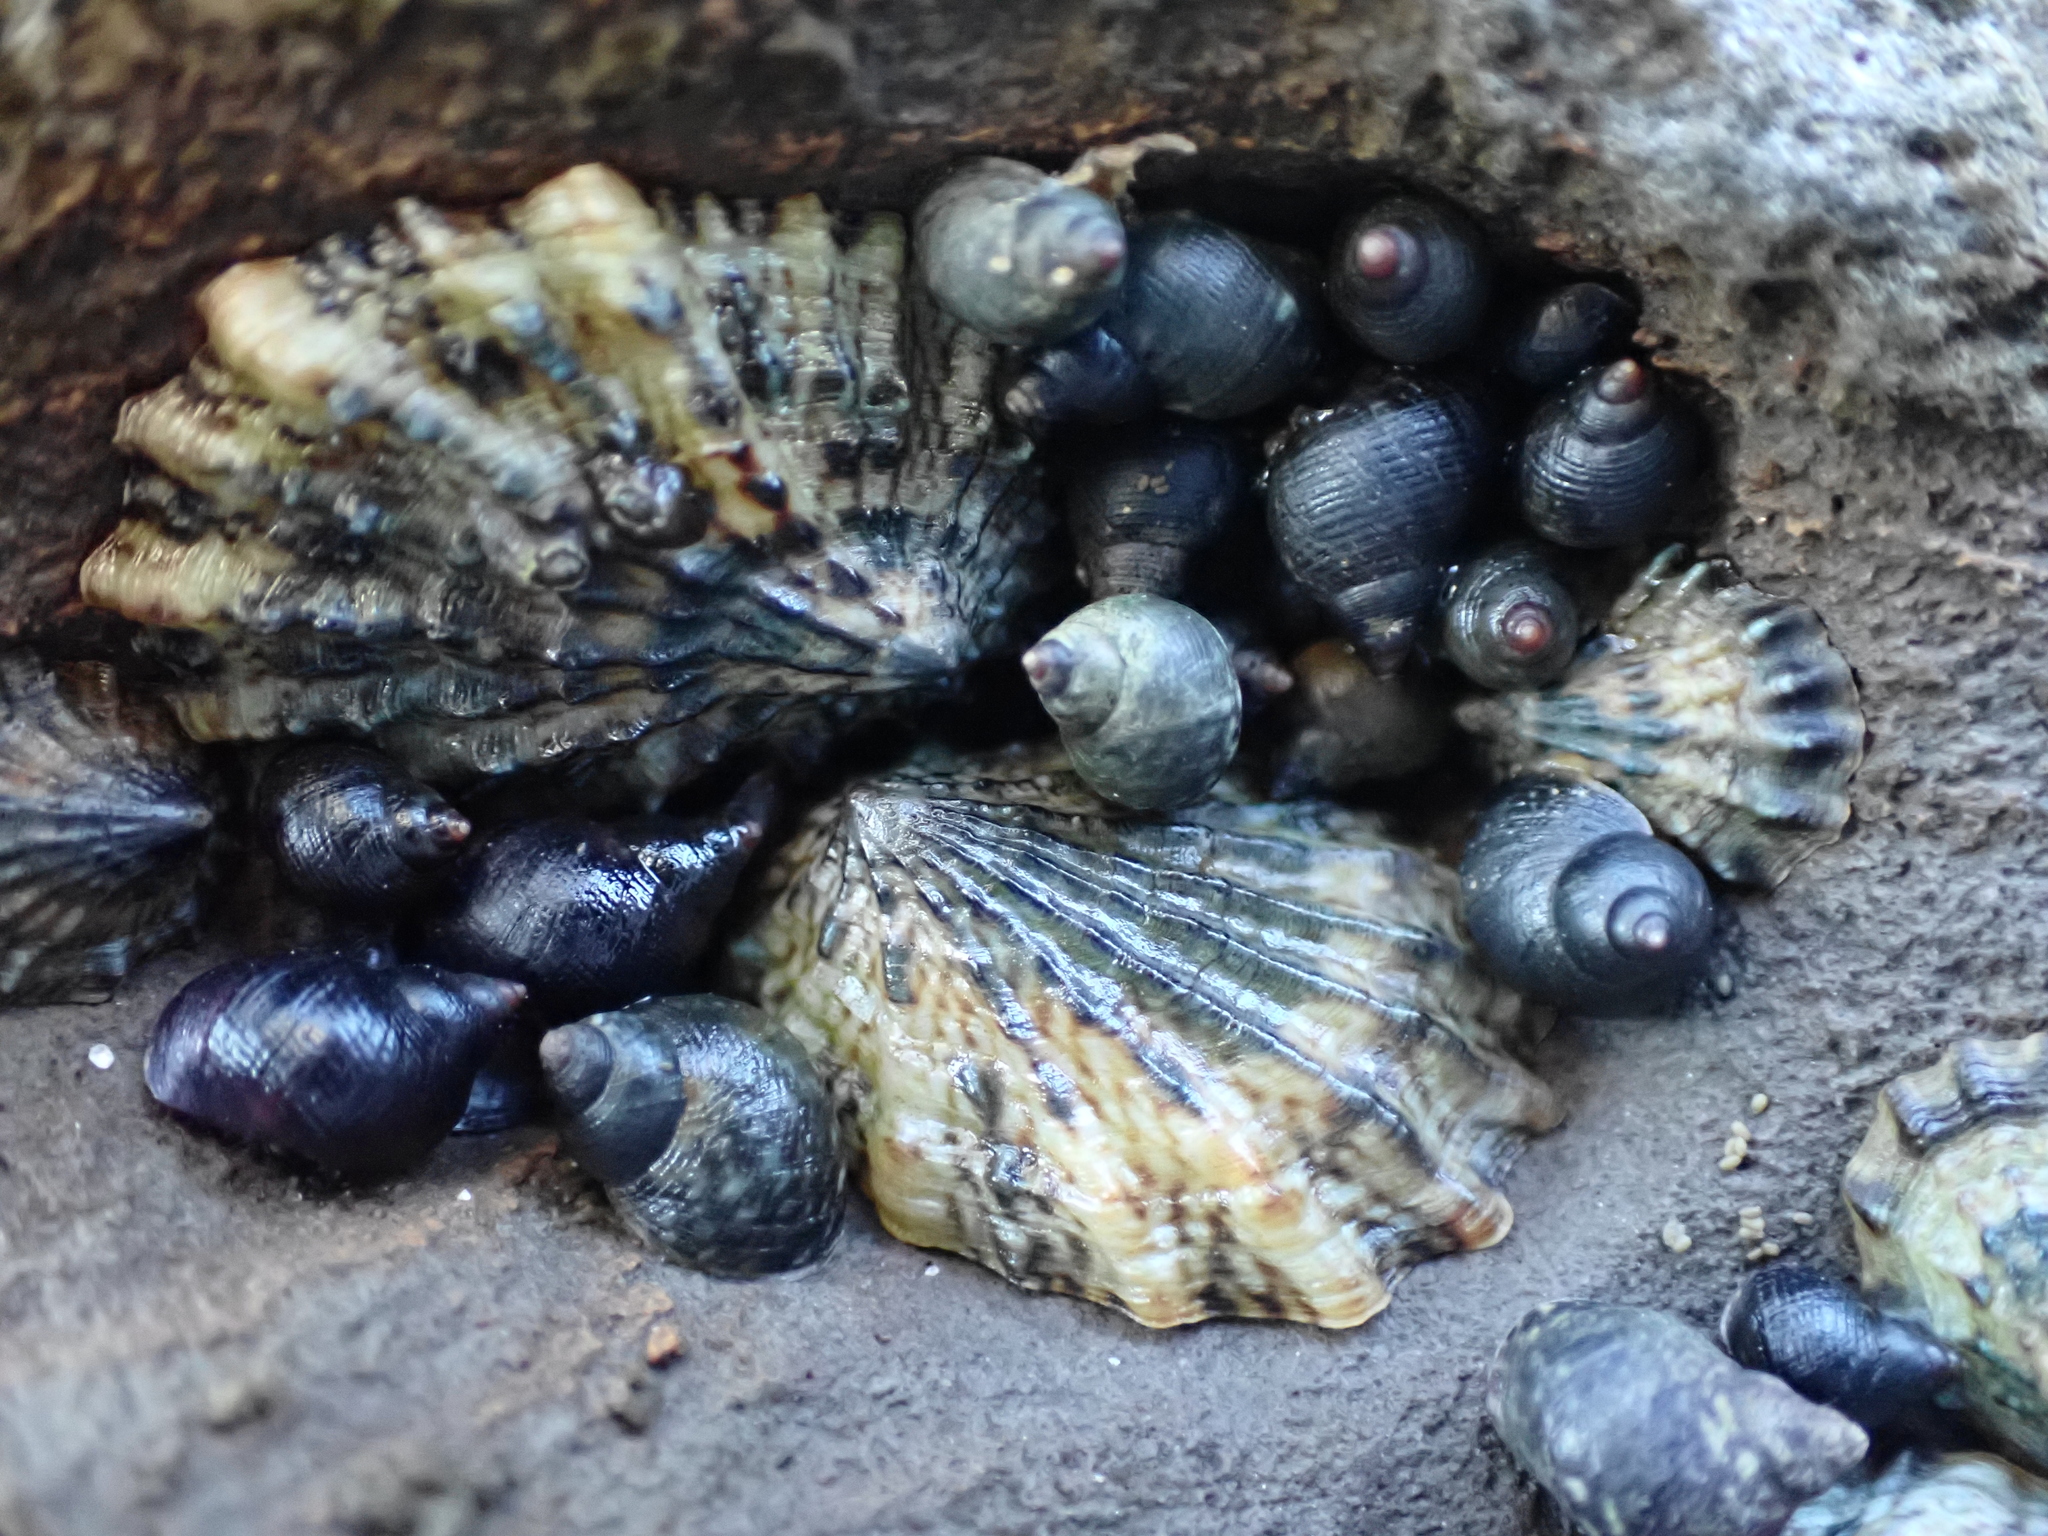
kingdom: Animalia
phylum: Mollusca
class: Gastropoda
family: Lottiidae
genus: Lottia
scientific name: Lottia scabra
